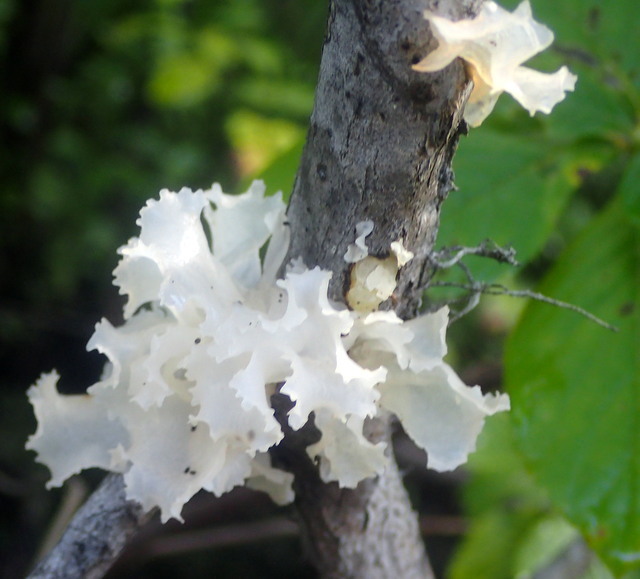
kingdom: Fungi
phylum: Basidiomycota
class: Tremellomycetes
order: Tremellales
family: Tremellaceae
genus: Tremella
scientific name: Tremella fuciformis
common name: Snow fungus
